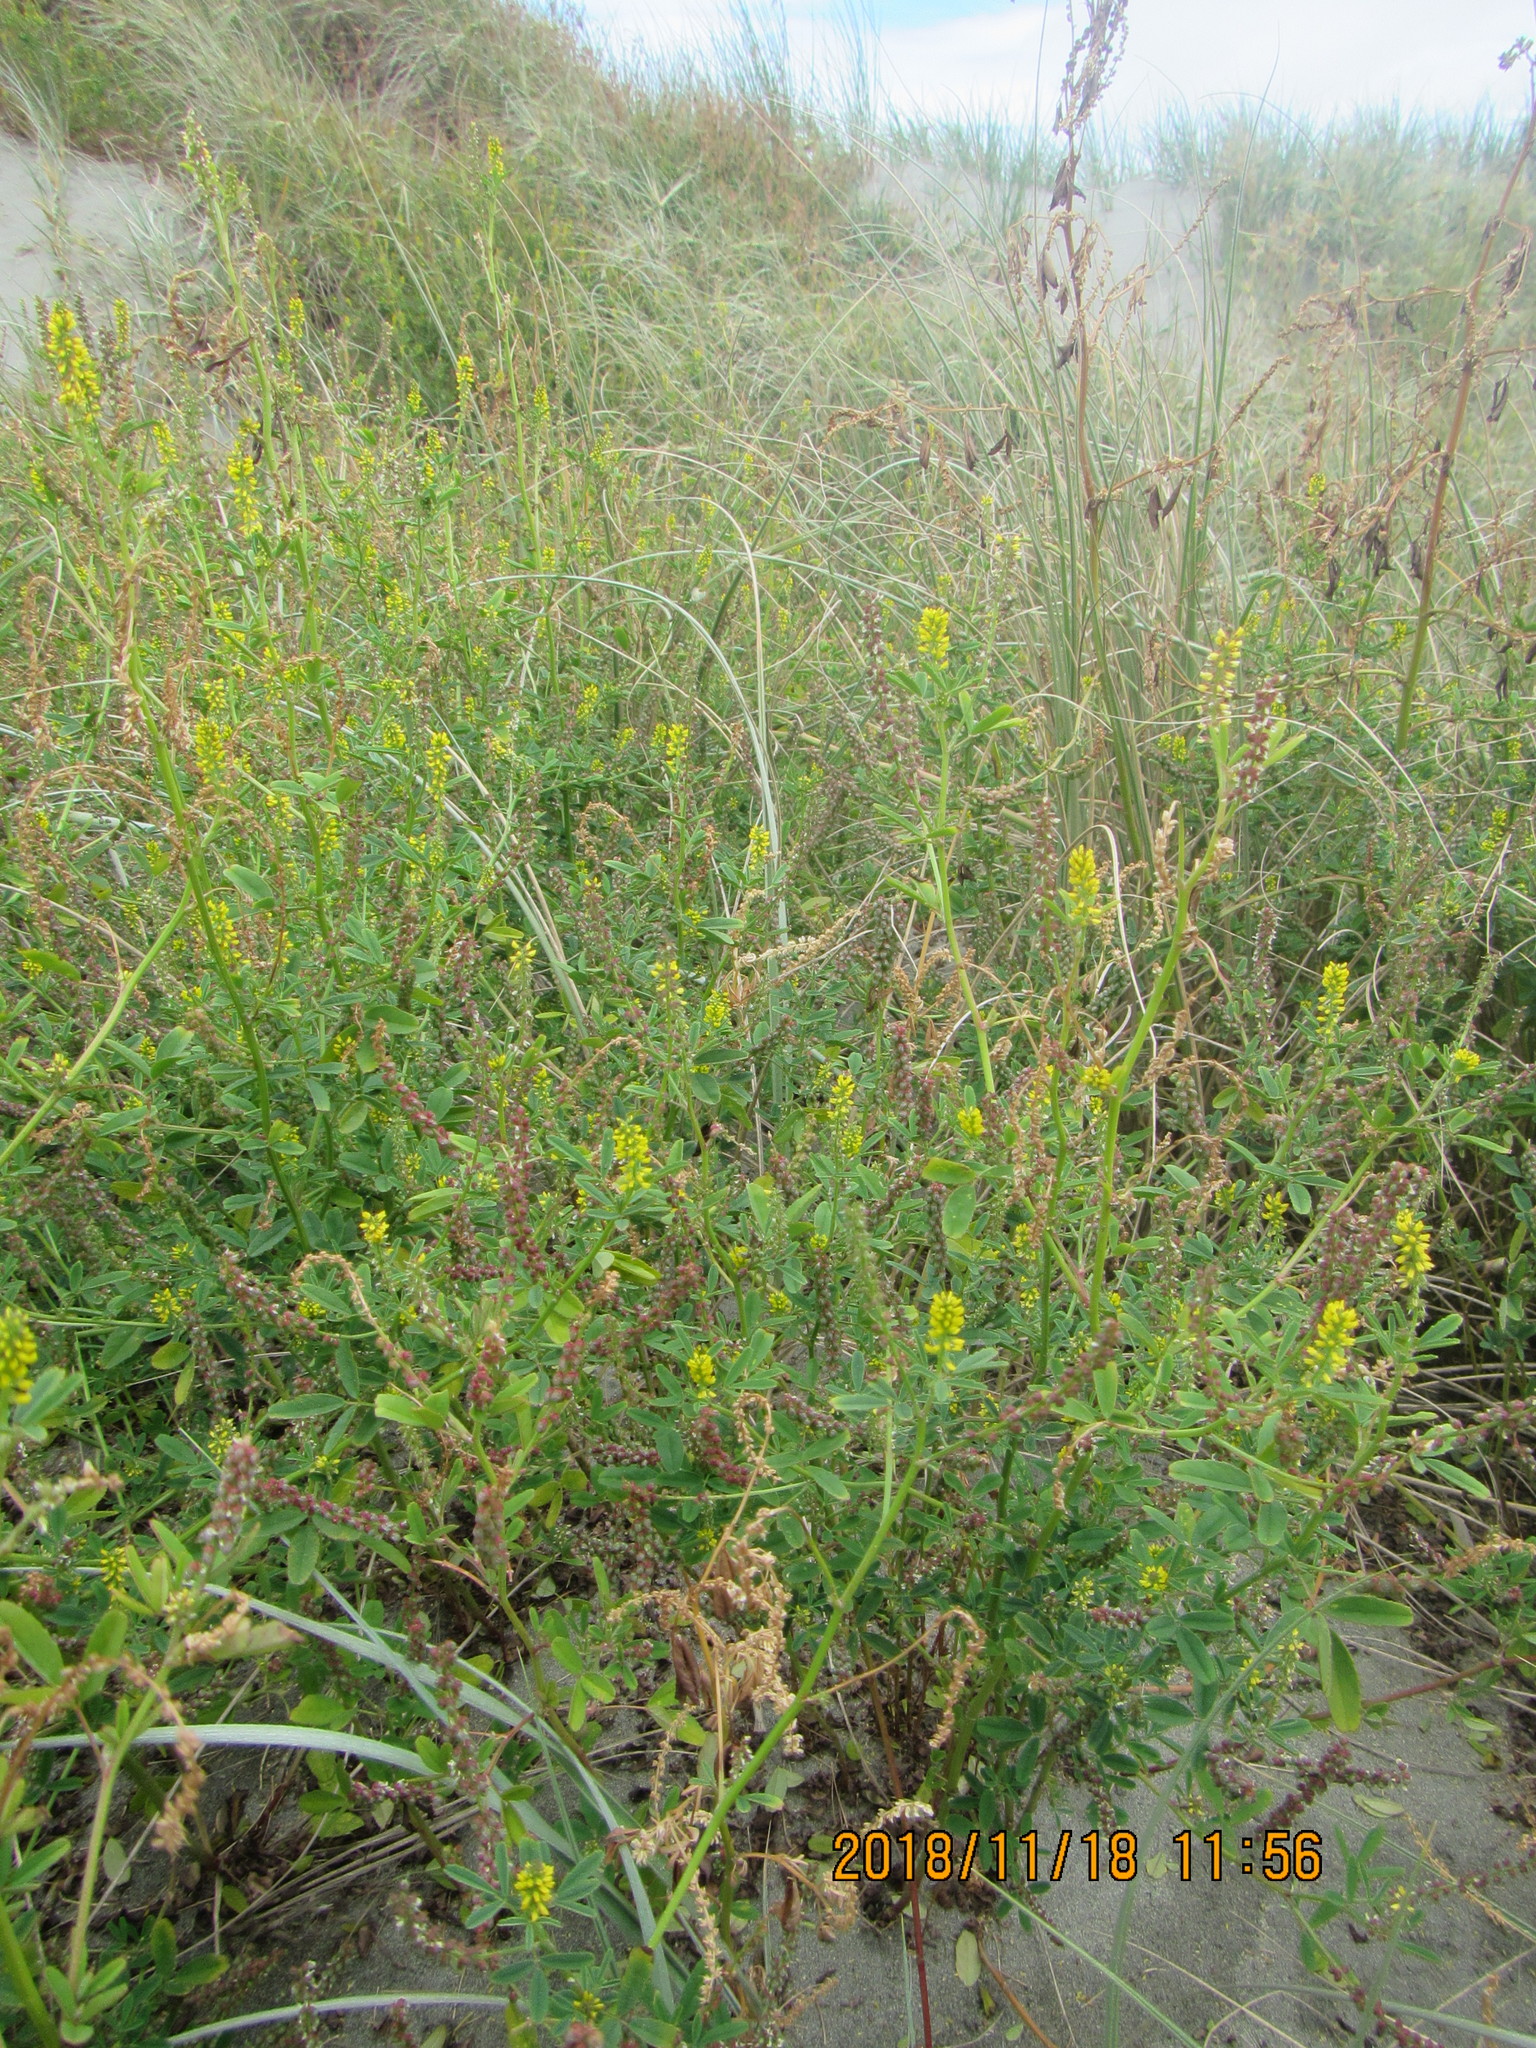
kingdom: Plantae
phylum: Tracheophyta
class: Magnoliopsida
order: Fabales
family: Fabaceae
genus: Melilotus
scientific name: Melilotus indicus
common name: Small melilot
